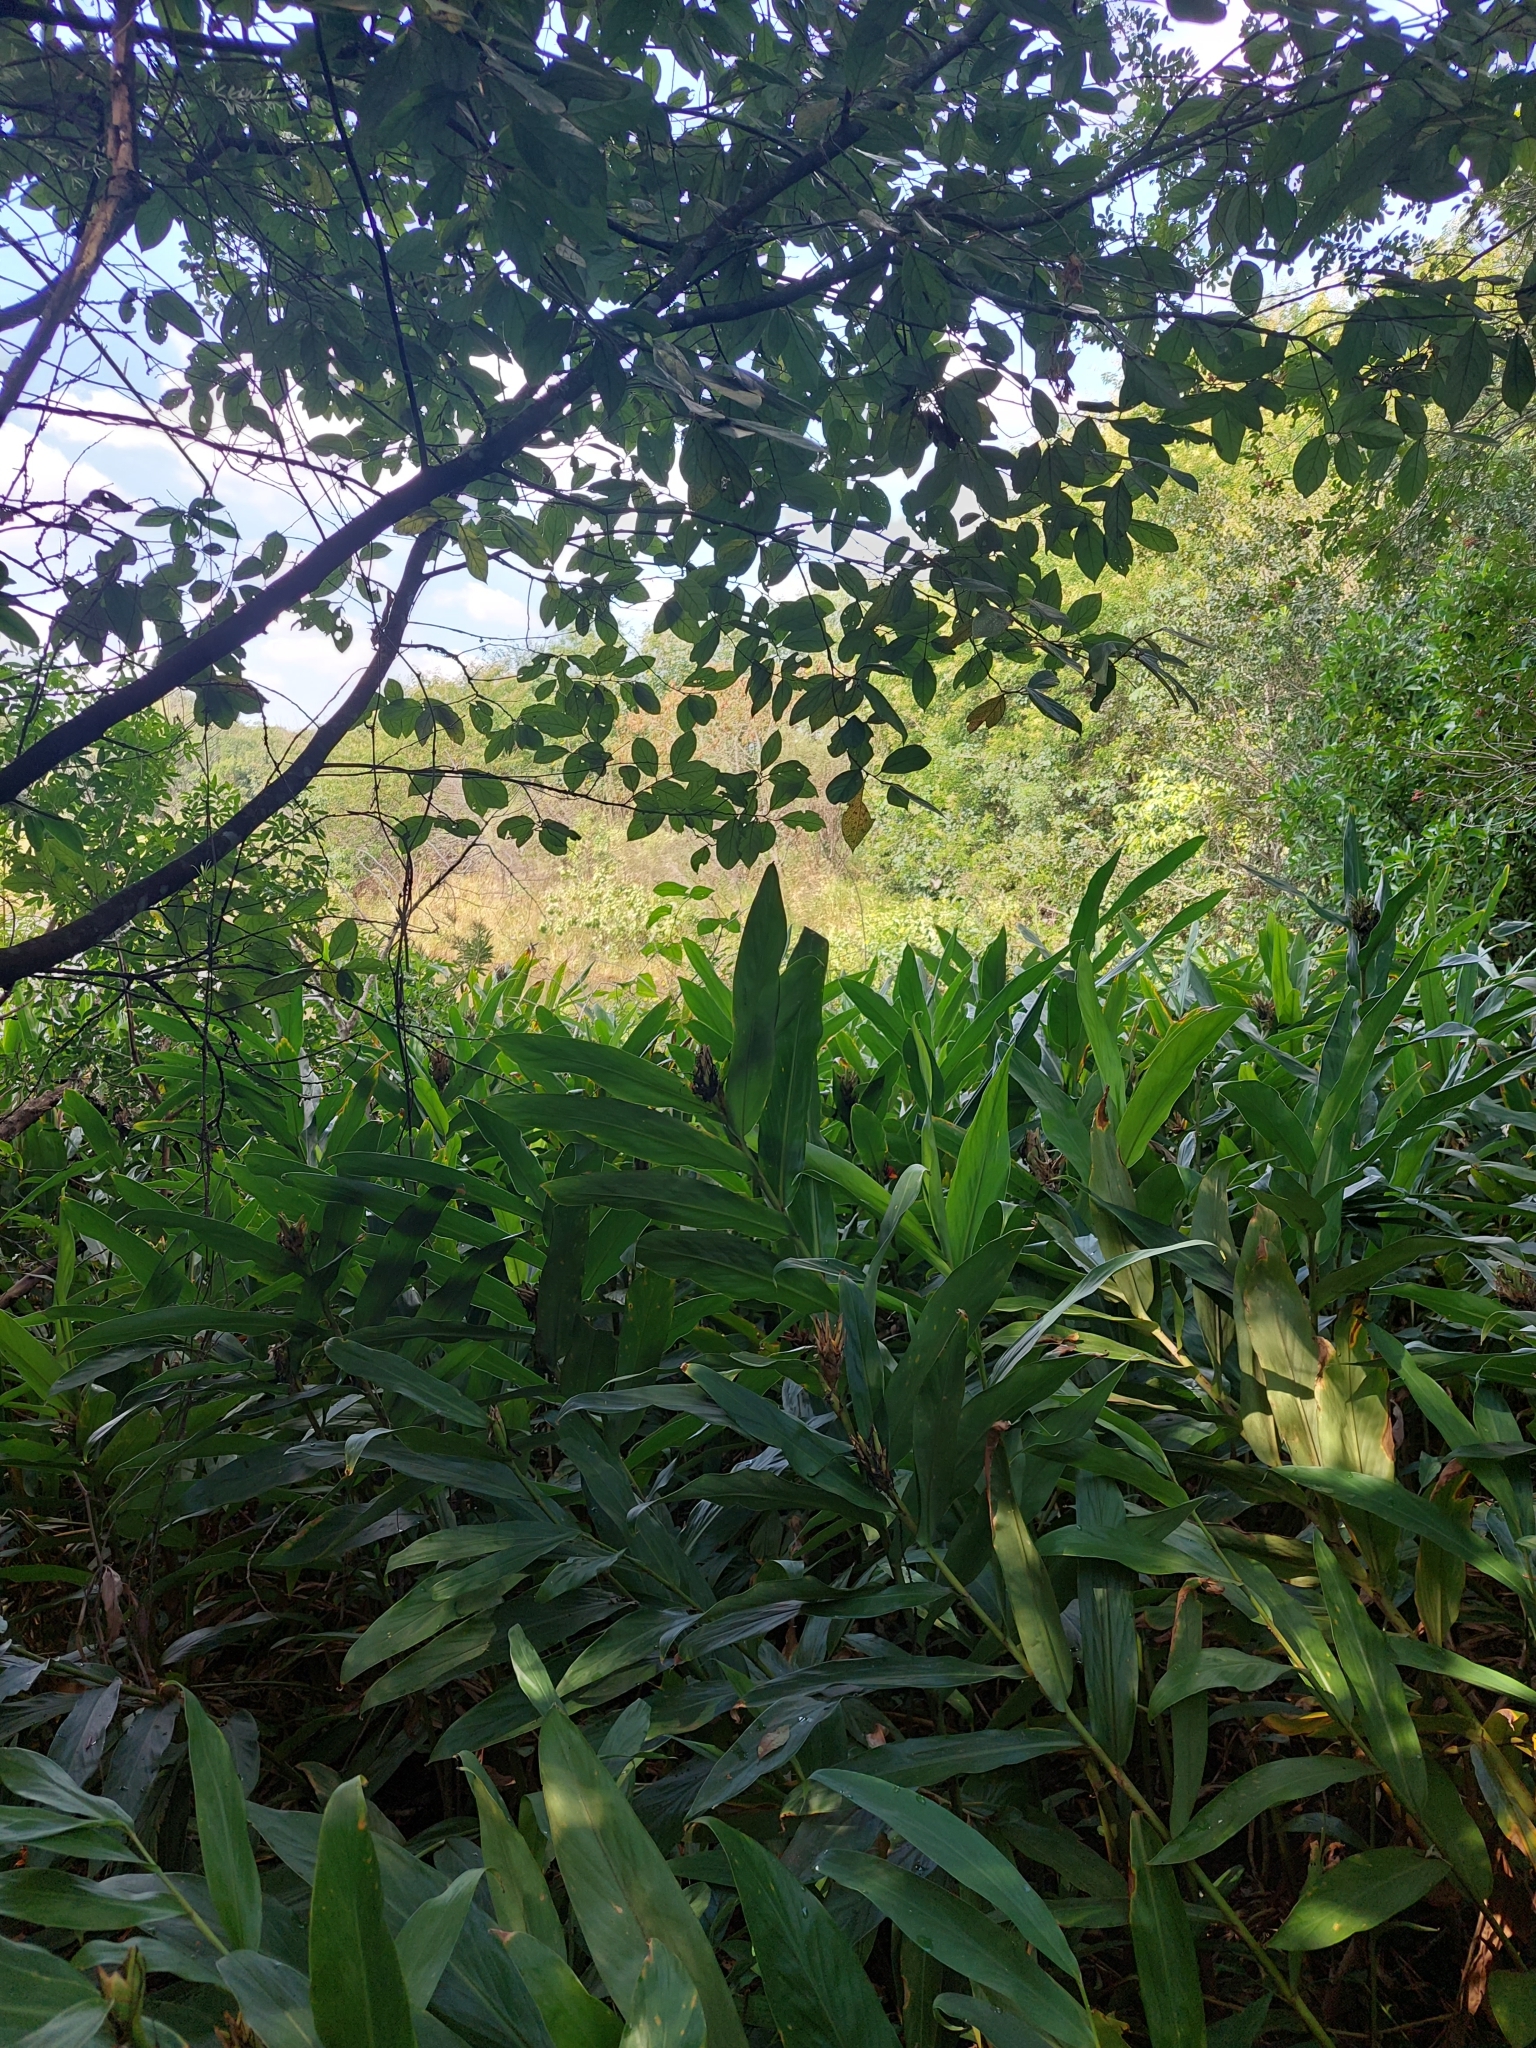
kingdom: Plantae
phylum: Tracheophyta
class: Liliopsida
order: Zingiberales
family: Zingiberaceae
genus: Hedychium
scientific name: Hedychium coronarium
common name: White garland-lily
